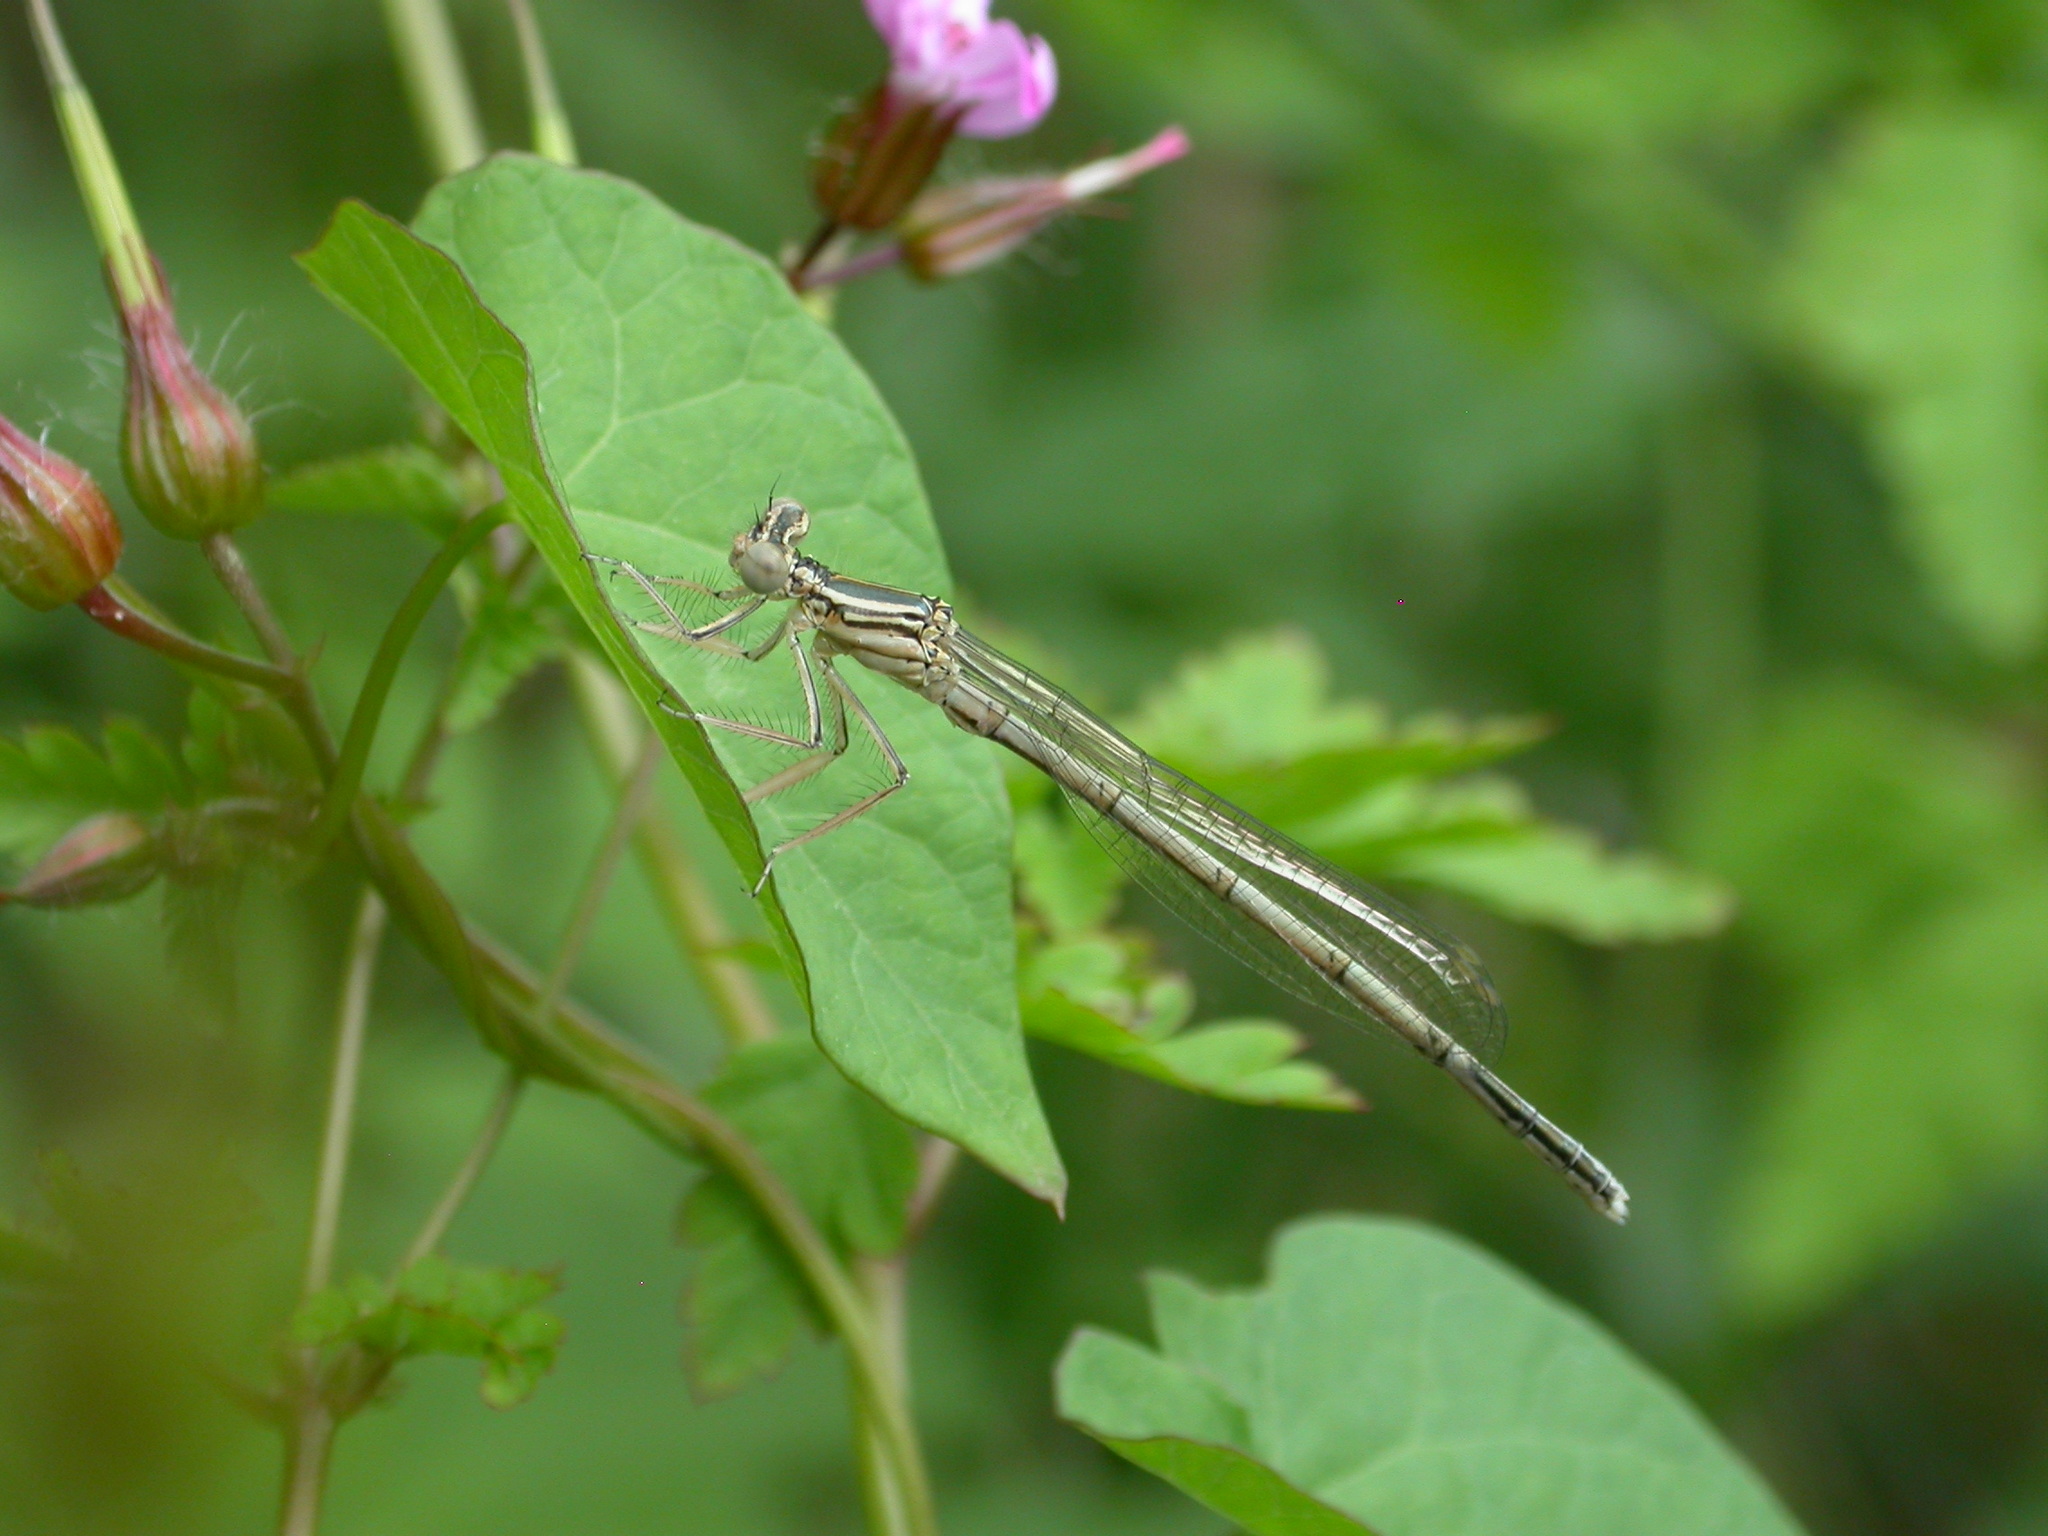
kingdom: Animalia
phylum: Arthropoda
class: Insecta
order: Odonata
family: Platycnemididae
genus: Platycnemis
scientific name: Platycnemis pennipes
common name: White-legged damselfly
